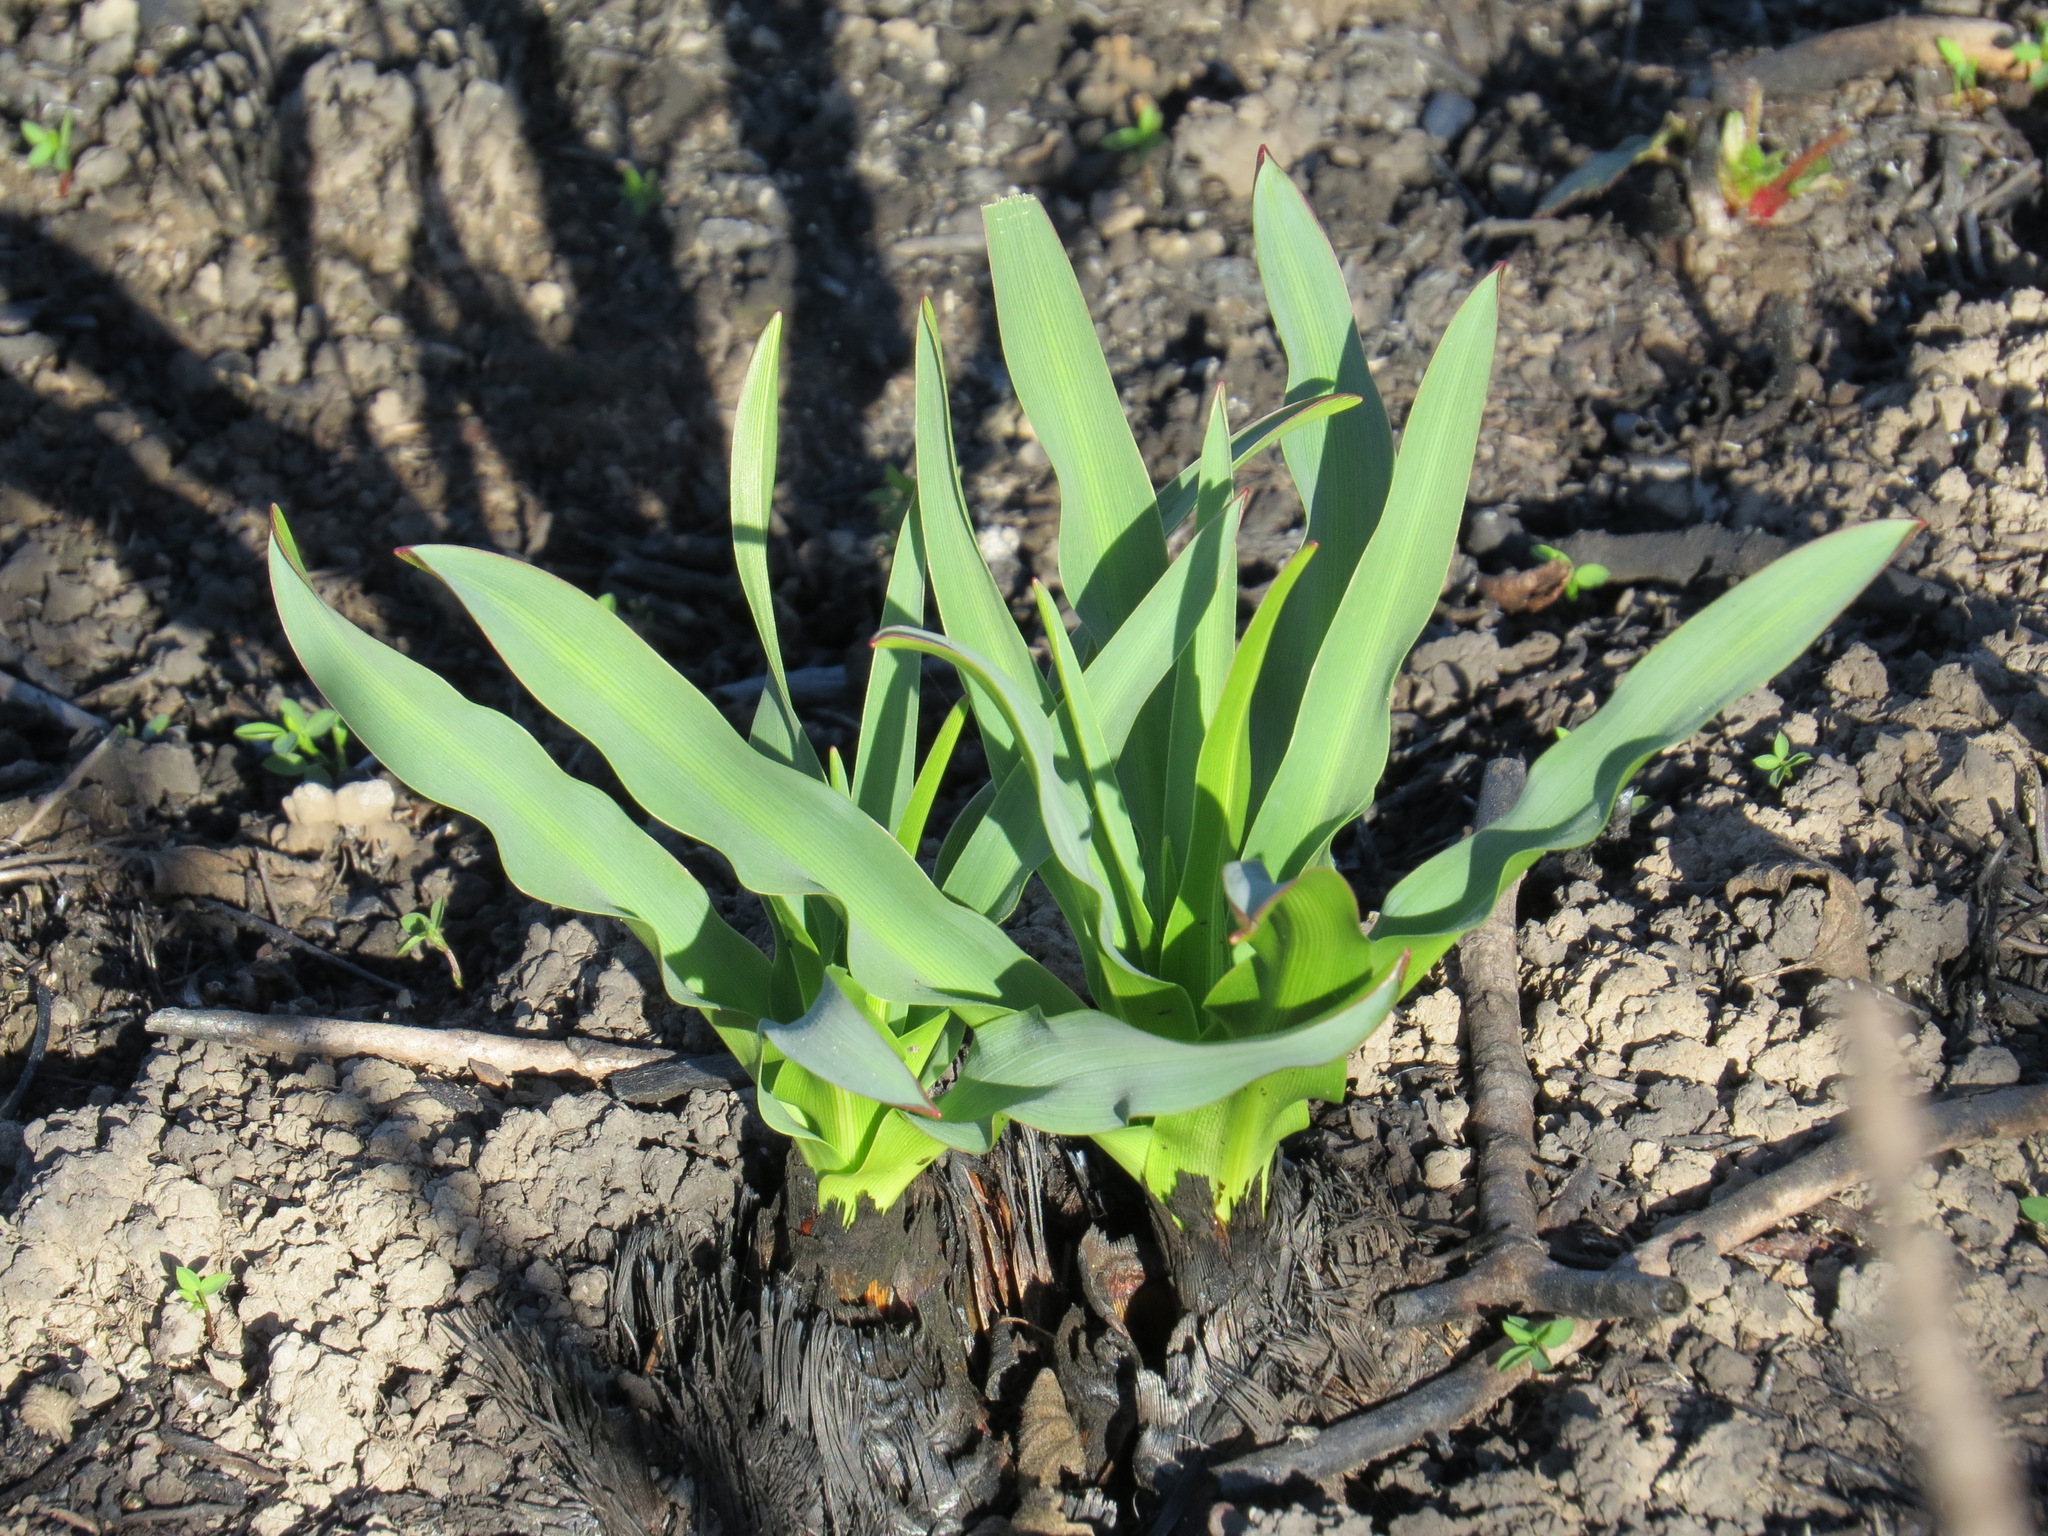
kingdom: Plantae
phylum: Tracheophyta
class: Liliopsida
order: Asparagales
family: Asparagaceae
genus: Chlorogalum
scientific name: Chlorogalum pomeridianum
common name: Amole
